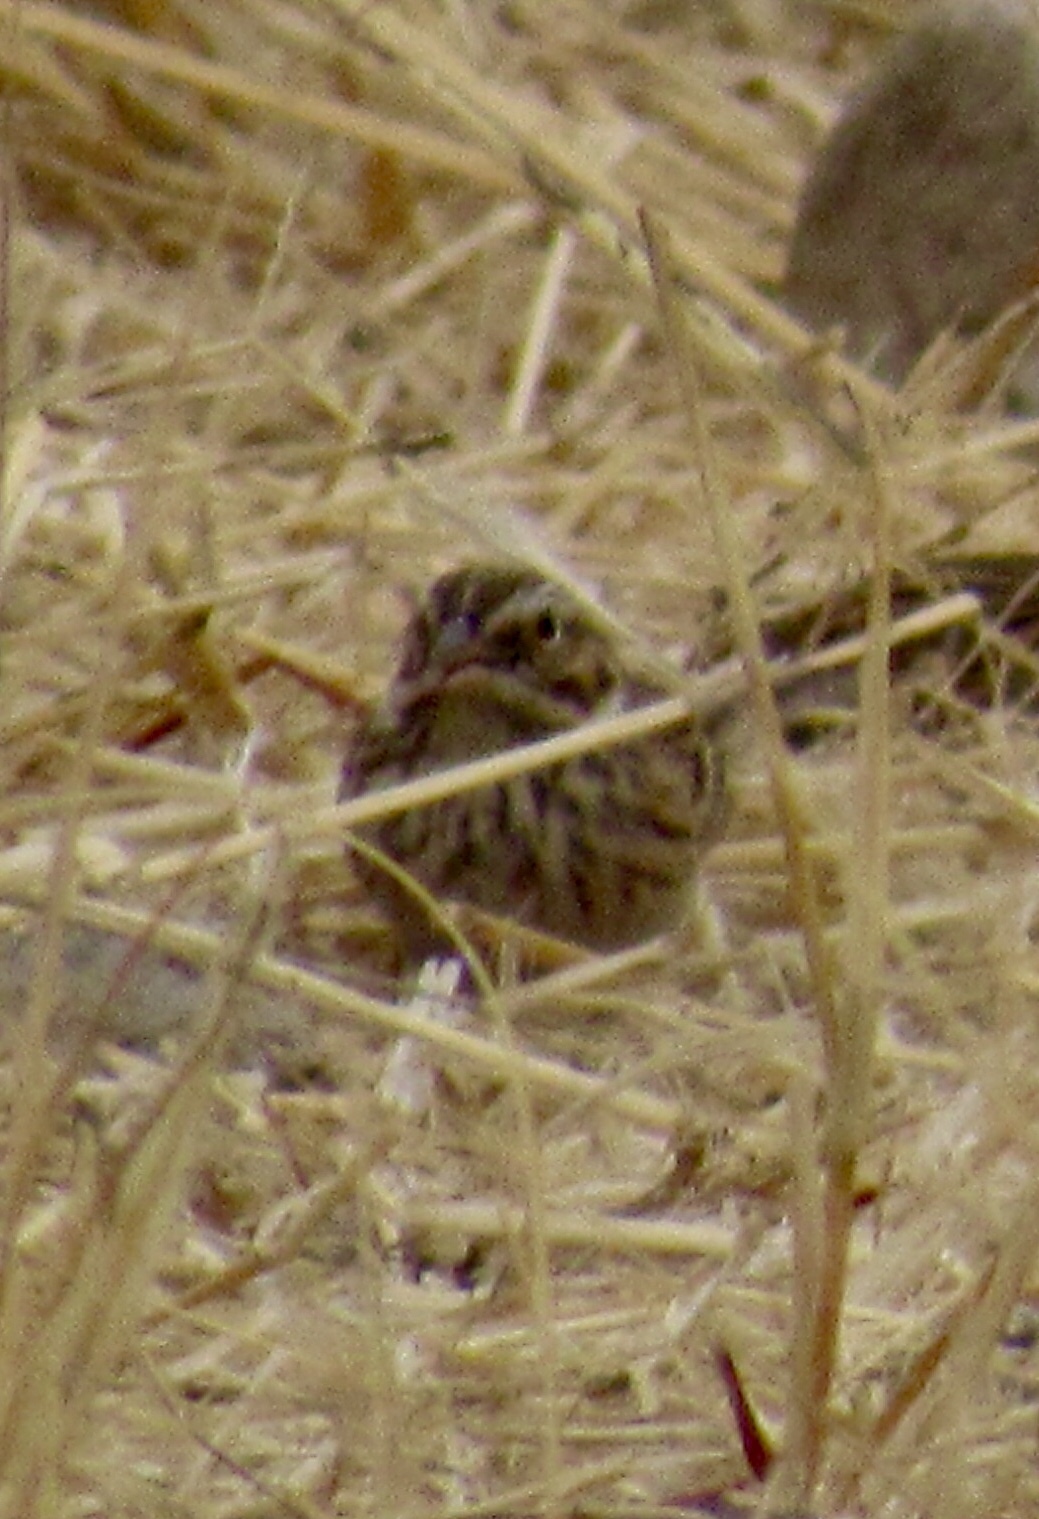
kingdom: Animalia
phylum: Chordata
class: Aves
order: Passeriformes
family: Passerellidae
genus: Pooecetes
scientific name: Pooecetes gramineus
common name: Vesper sparrow
